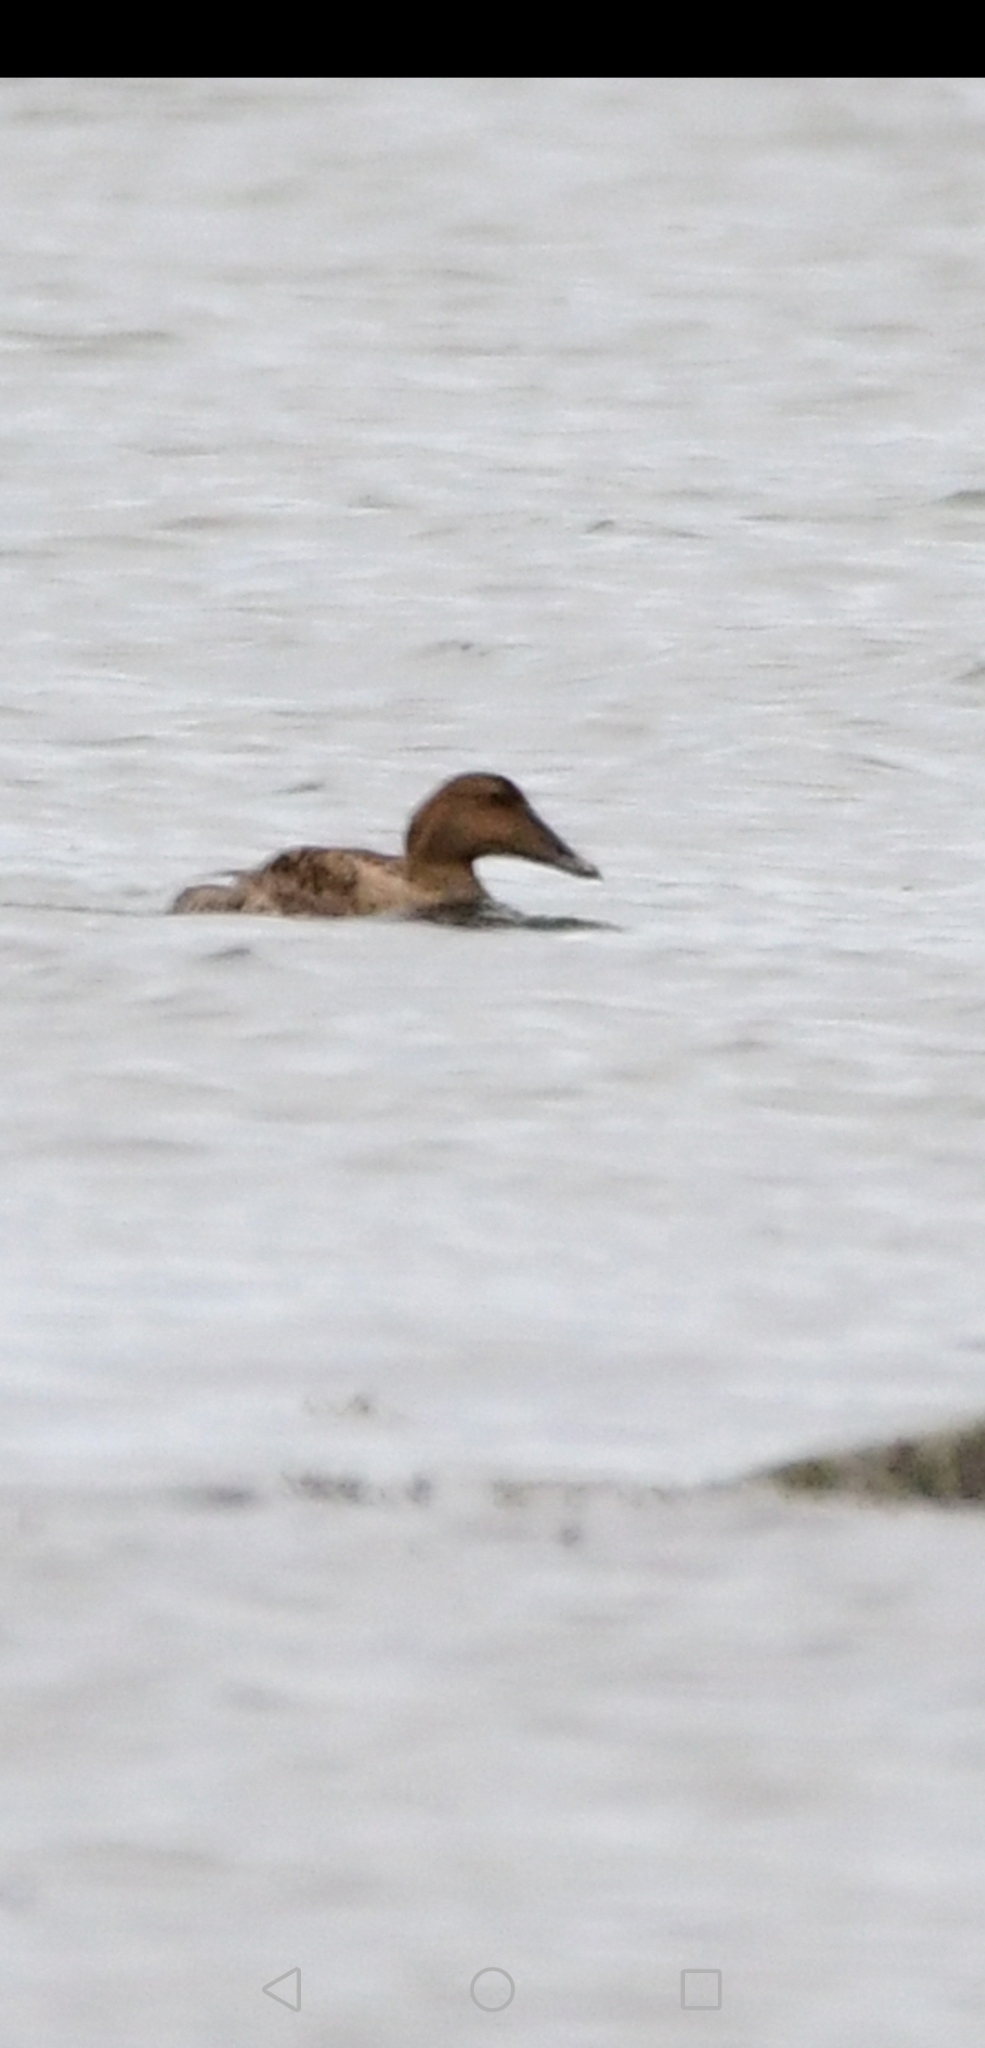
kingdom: Animalia
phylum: Chordata
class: Aves
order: Anseriformes
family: Anatidae
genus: Somateria
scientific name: Somateria mollissima
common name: Common eider
